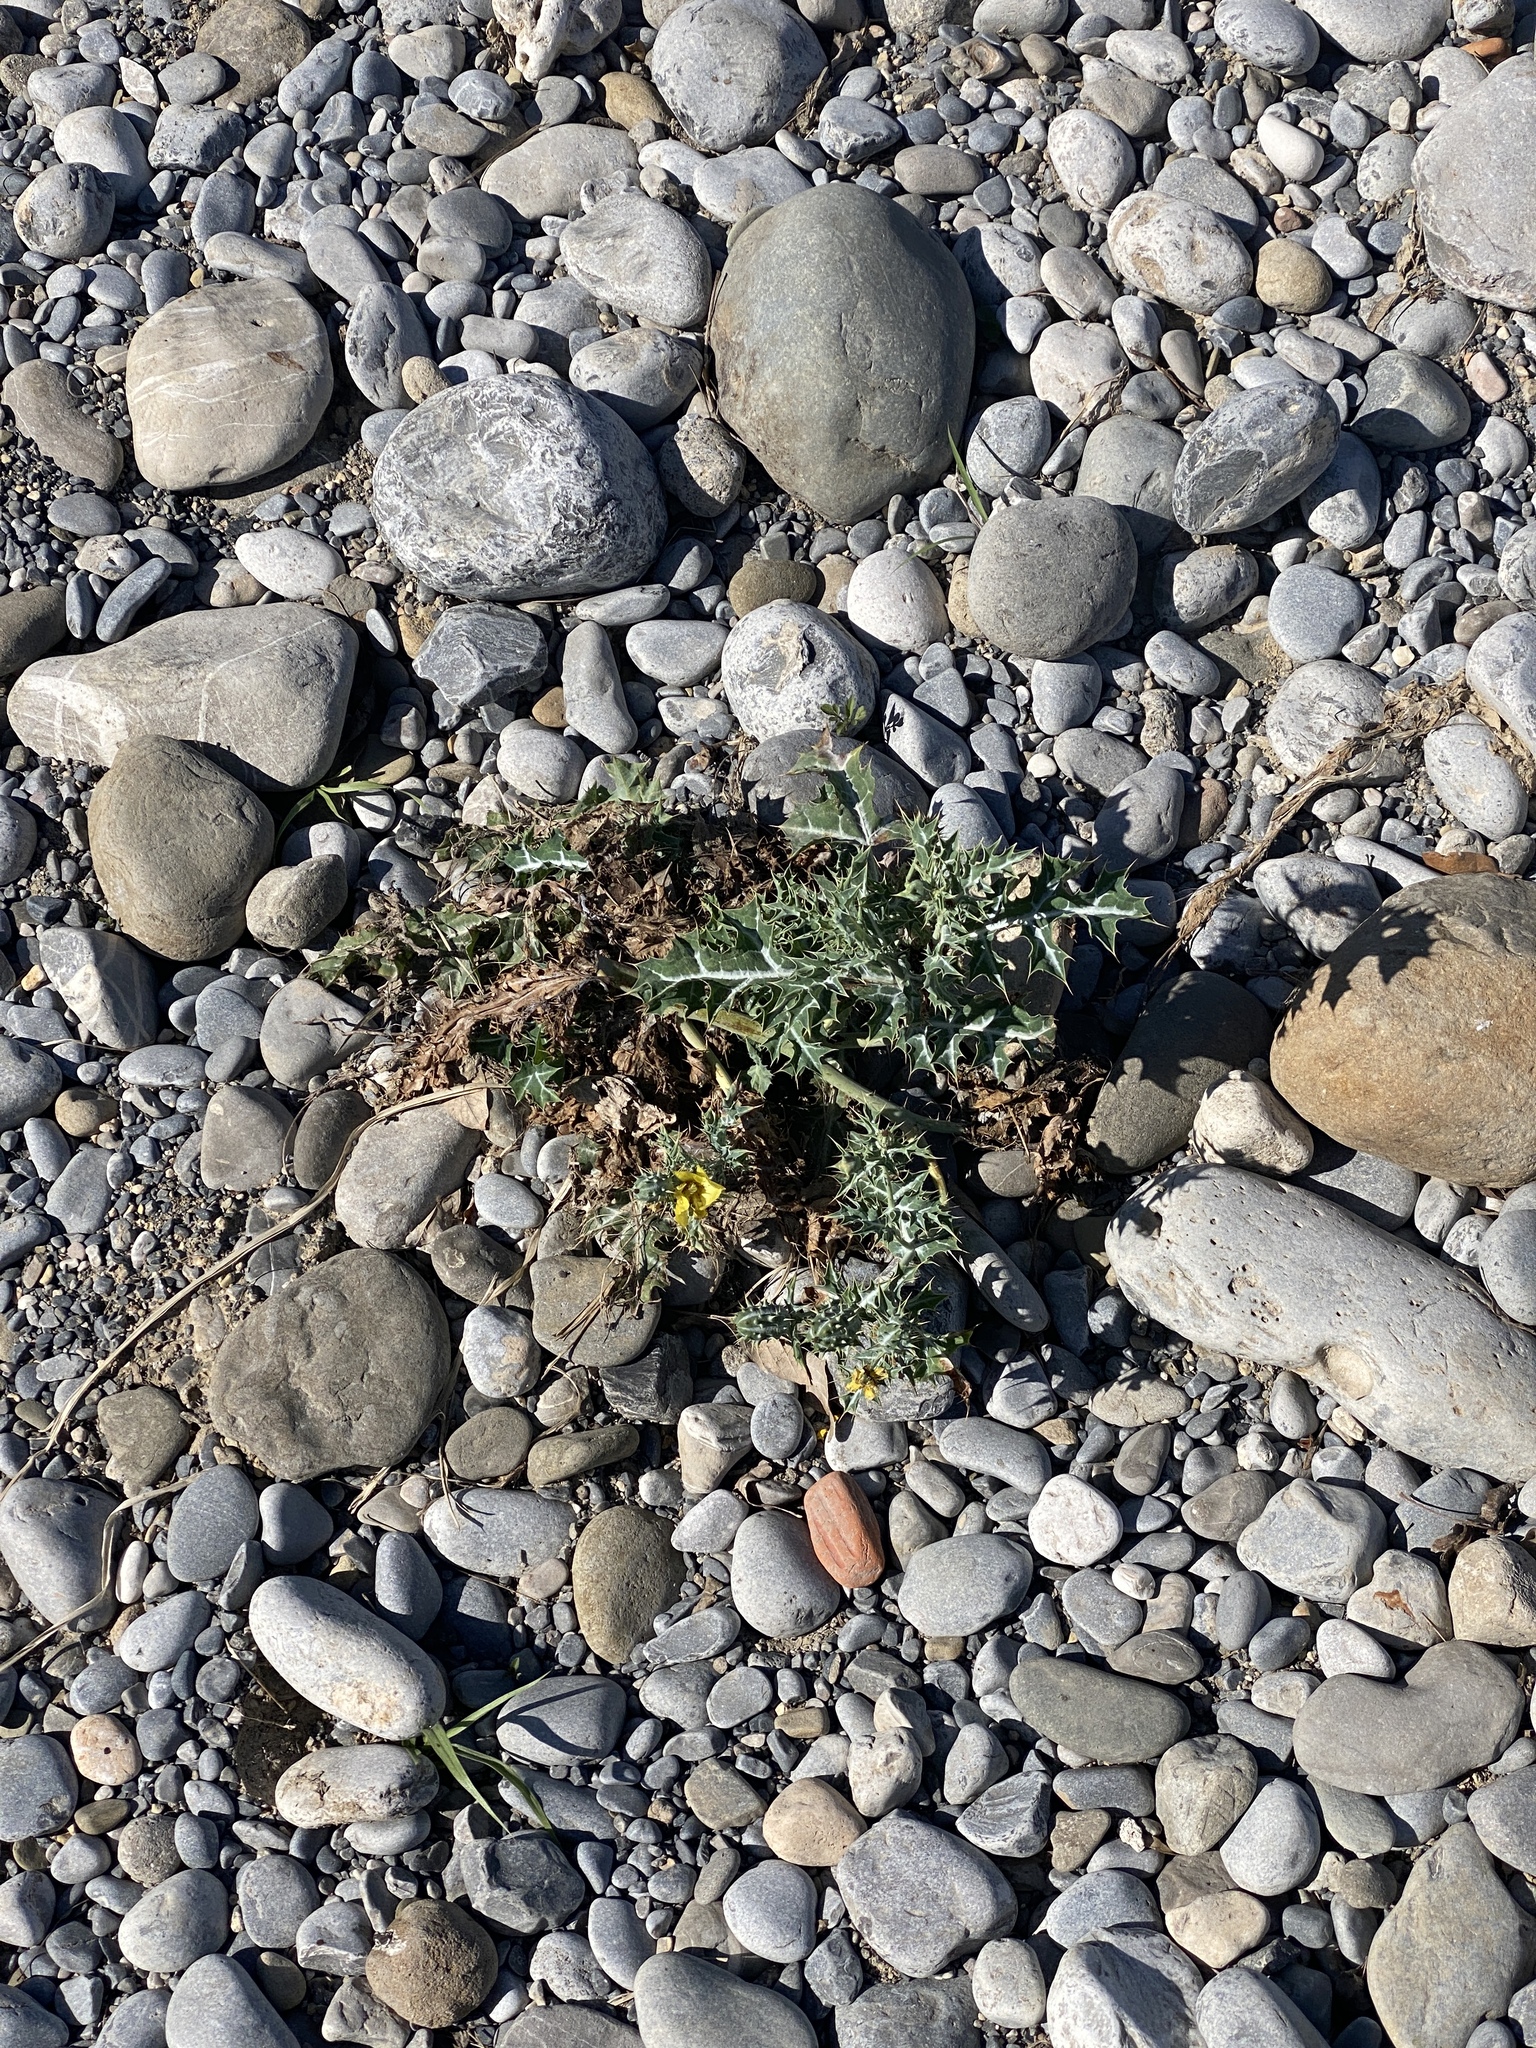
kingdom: Plantae
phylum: Tracheophyta
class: Magnoliopsida
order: Ranunculales
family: Papaveraceae
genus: Argemone
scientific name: Argemone mexicana
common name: Mexican poppy
